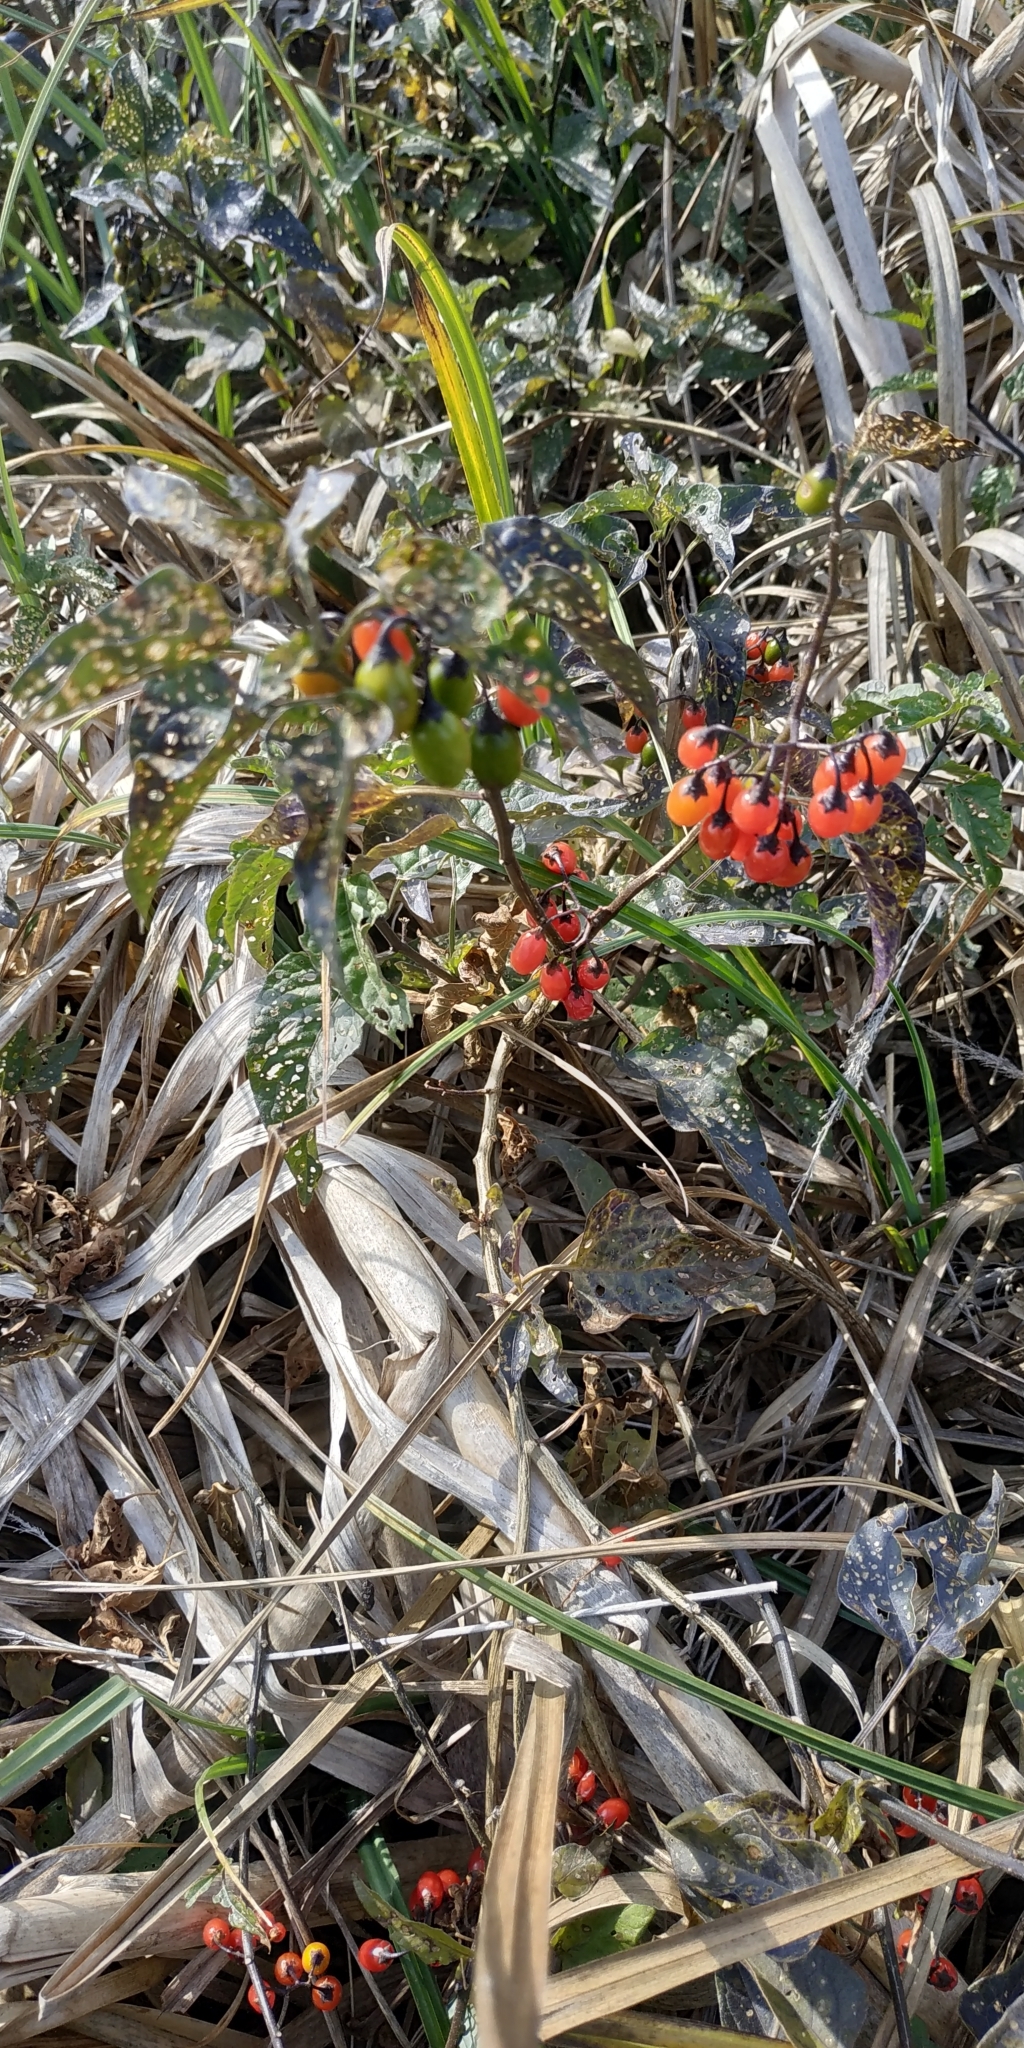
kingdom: Plantae
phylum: Tracheophyta
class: Magnoliopsida
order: Solanales
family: Solanaceae
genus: Solanum
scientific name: Solanum dulcamara
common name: Climbing nightshade
